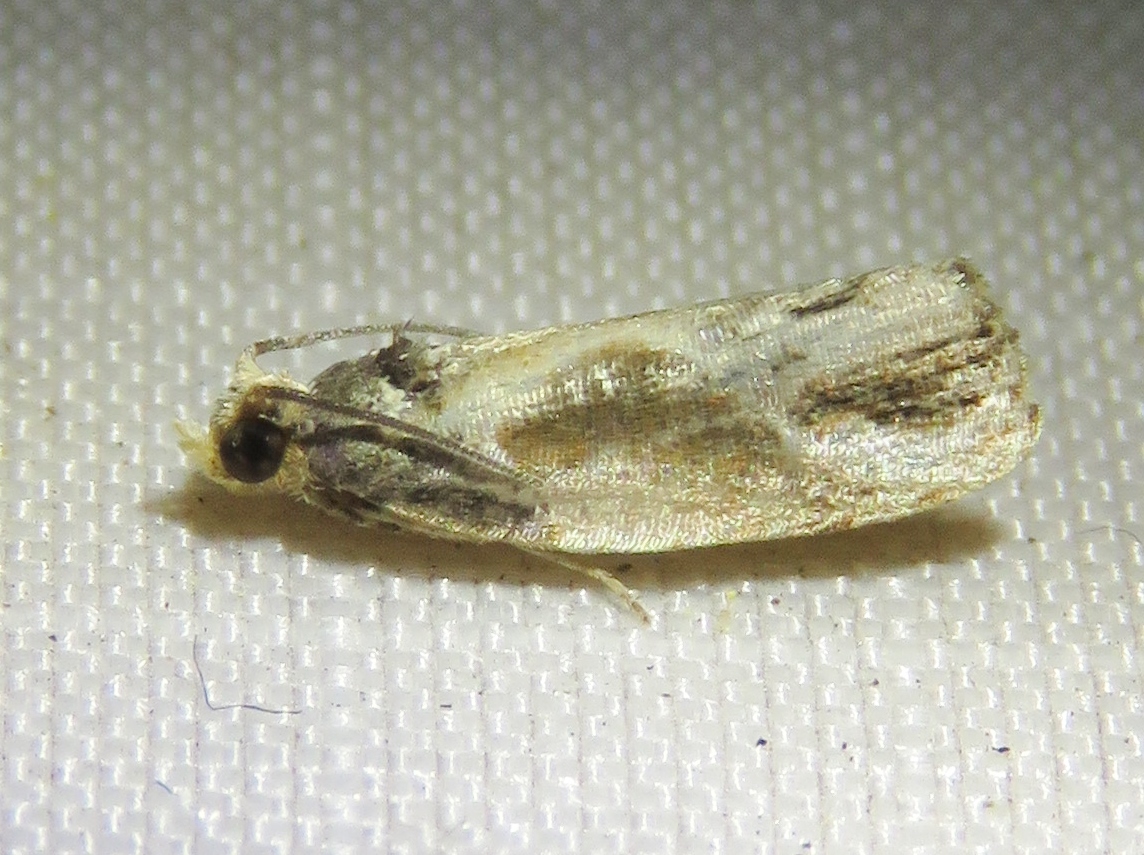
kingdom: Animalia
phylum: Arthropoda
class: Insecta
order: Lepidoptera
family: Tortricidae
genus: Eumarozia
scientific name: Eumarozia malachitana
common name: Sculptured moth
